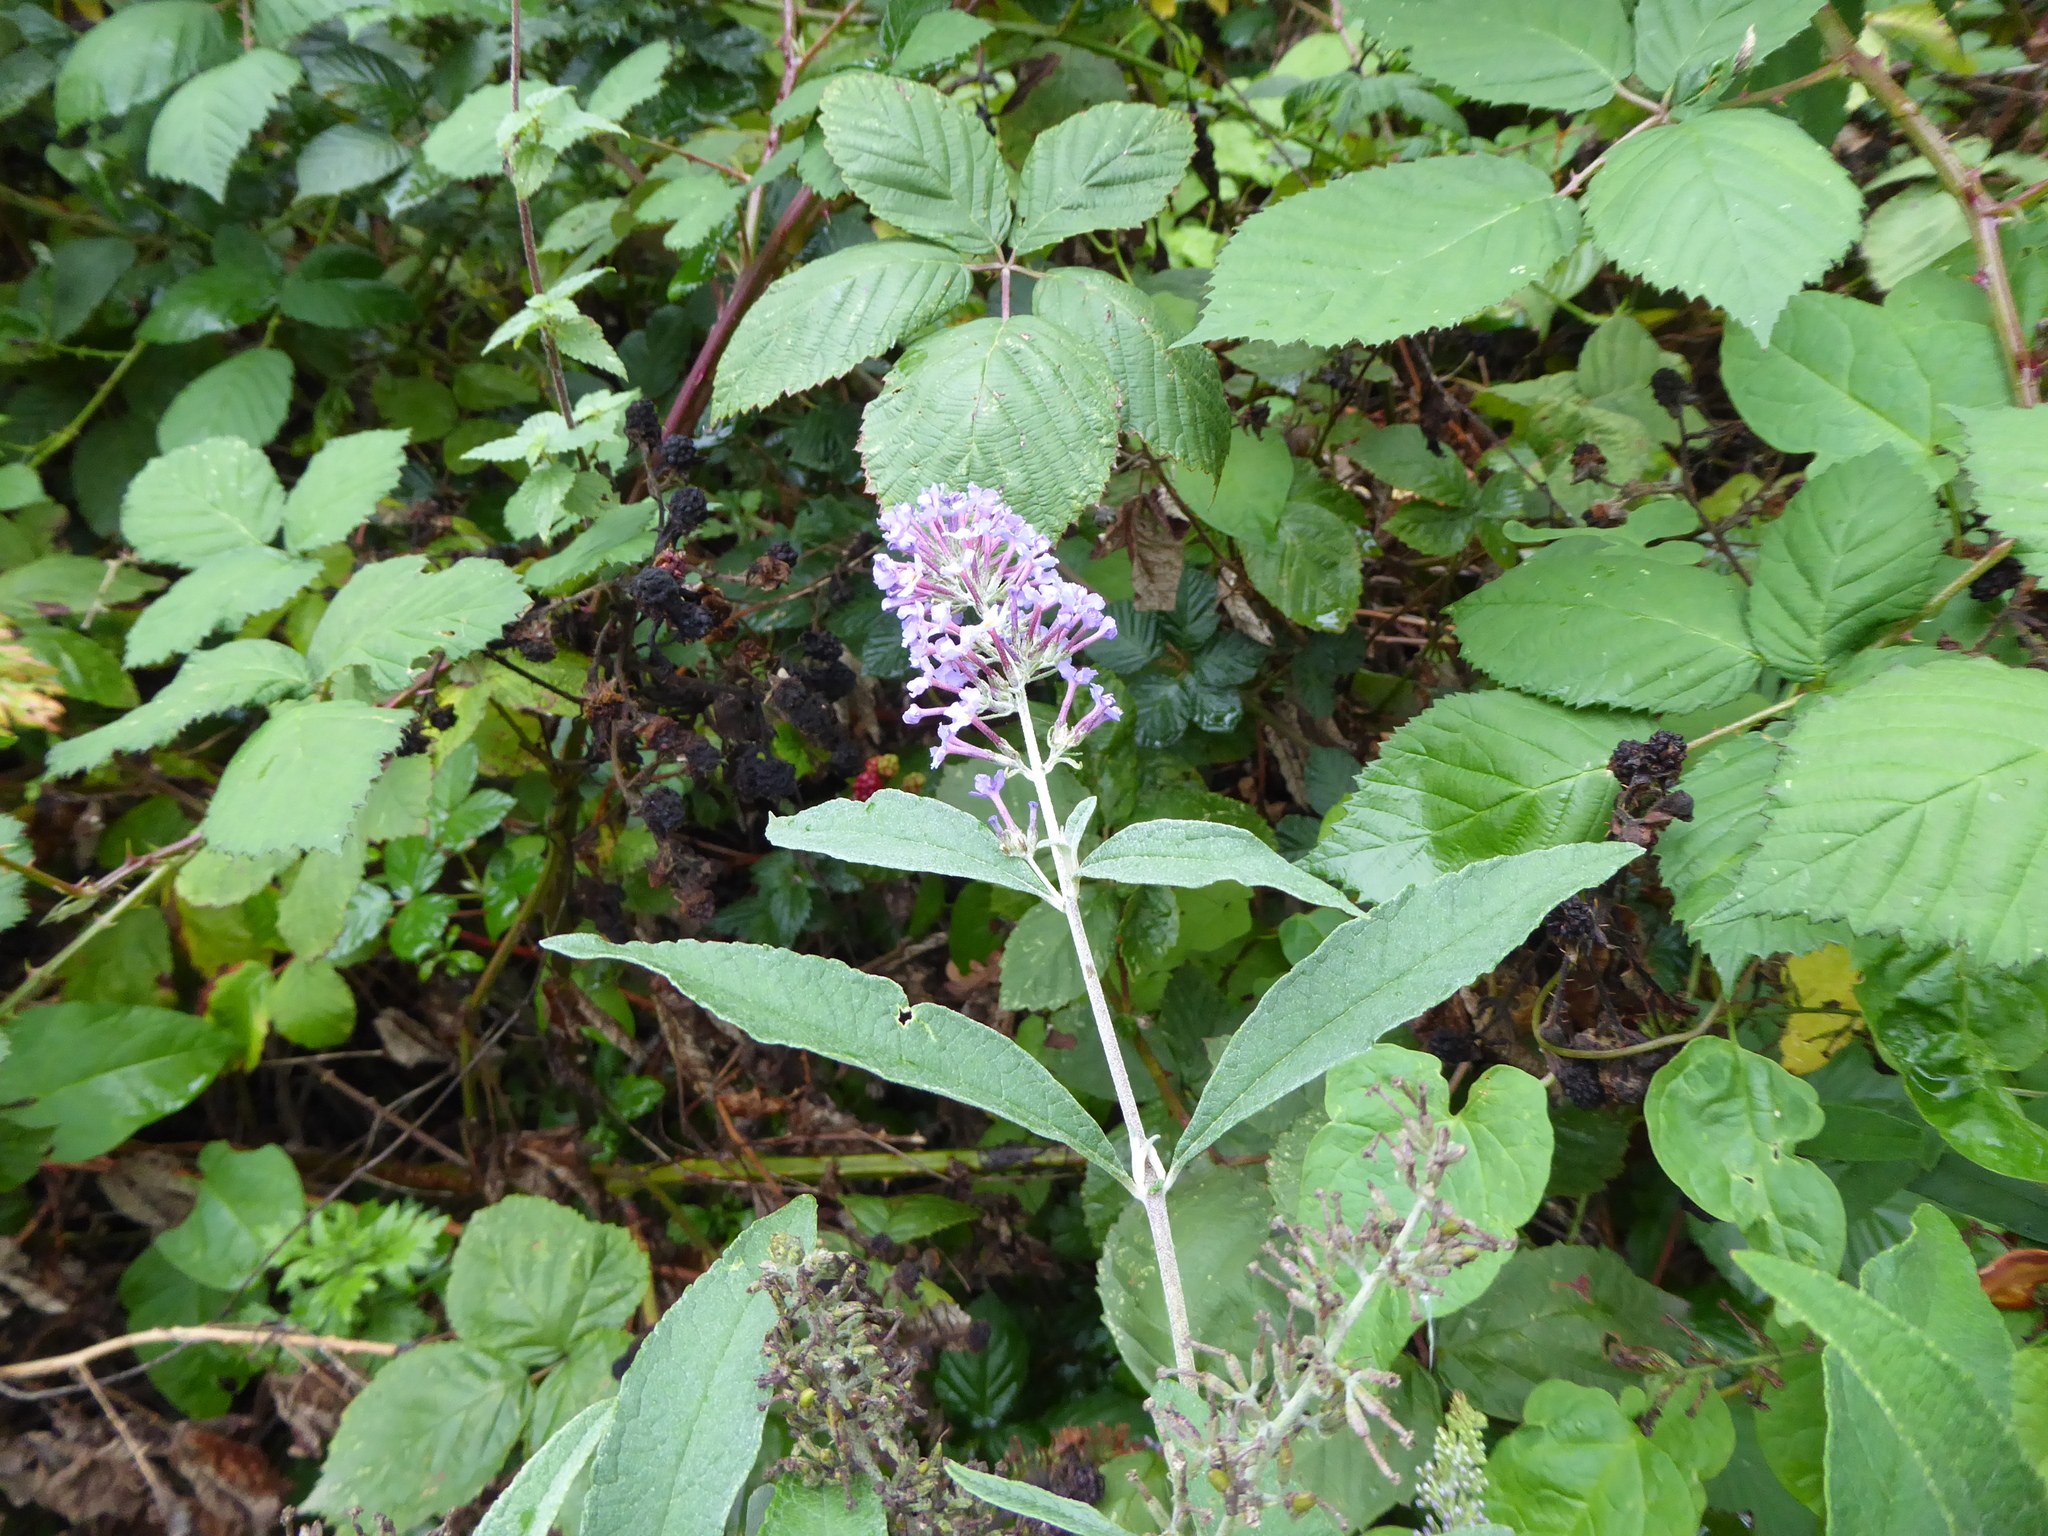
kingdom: Plantae
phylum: Tracheophyta
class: Magnoliopsida
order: Lamiales
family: Scrophulariaceae
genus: Buddleja
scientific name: Buddleja davidii
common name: Butterfly-bush
